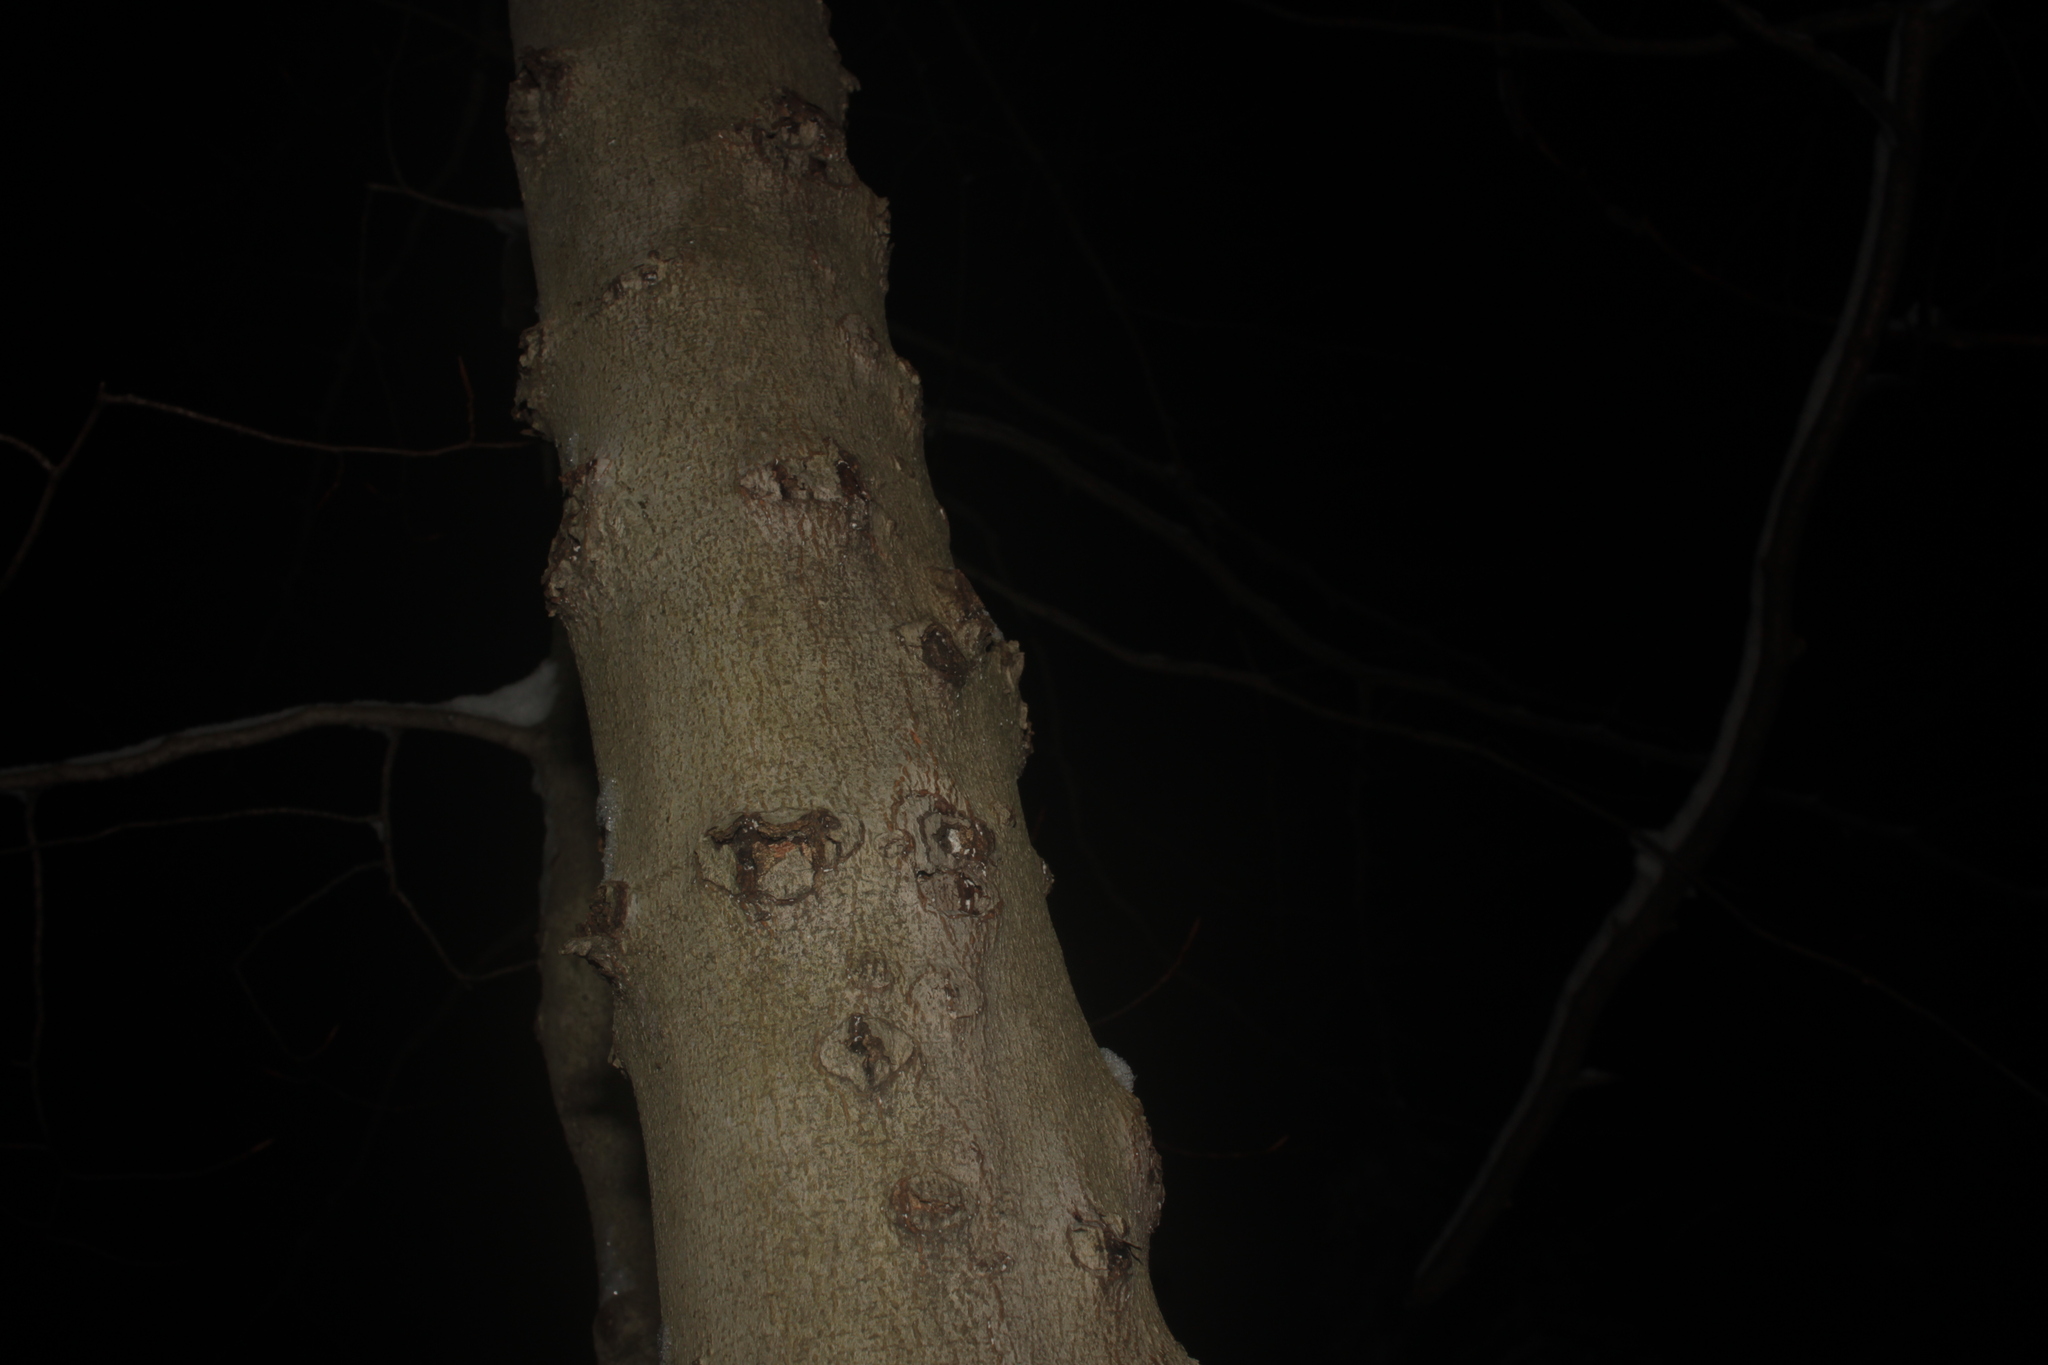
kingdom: Plantae
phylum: Tracheophyta
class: Magnoliopsida
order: Fagales
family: Fagaceae
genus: Fagus
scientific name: Fagus grandifolia
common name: American beech
